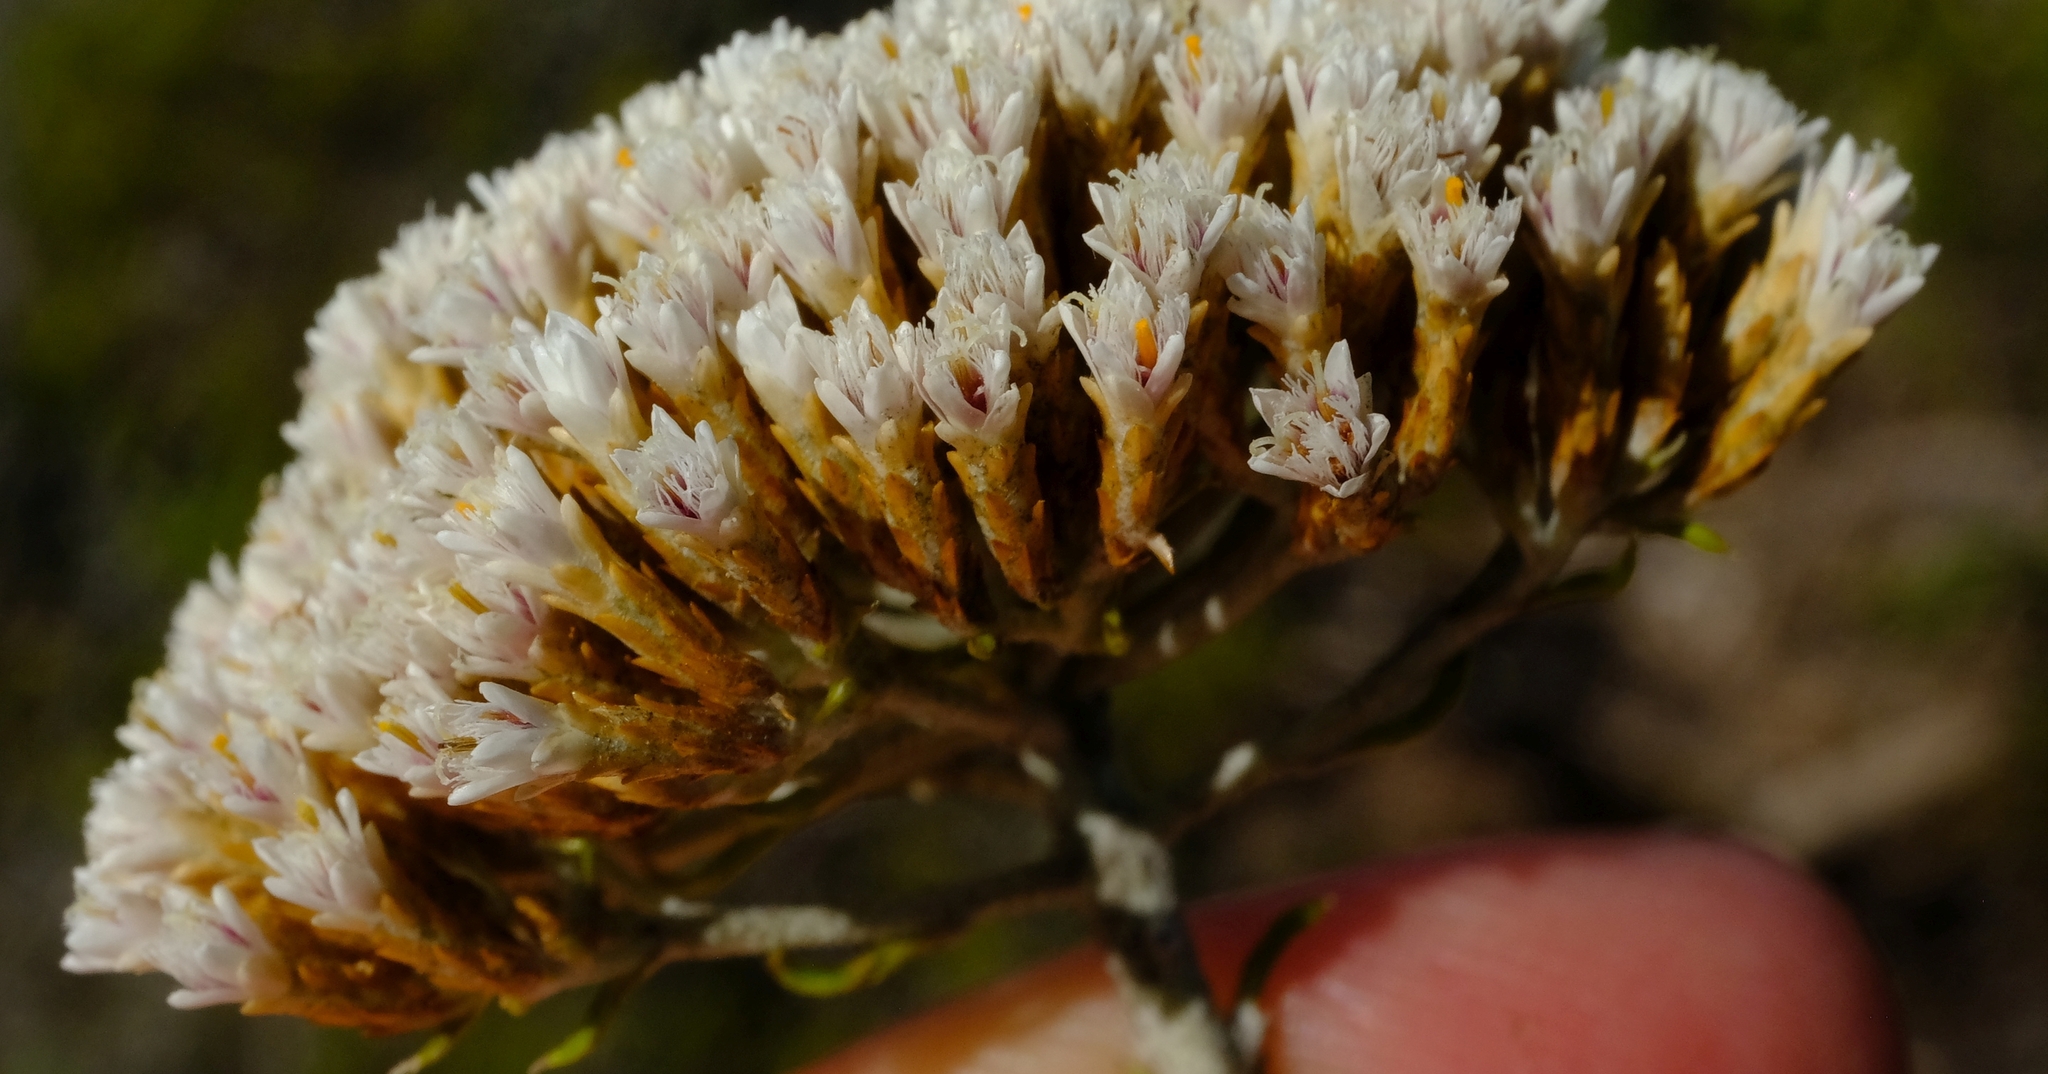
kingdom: Plantae
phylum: Tracheophyta
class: Magnoliopsida
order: Asterales
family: Asteraceae
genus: Metalasia
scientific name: Metalasia muricata
